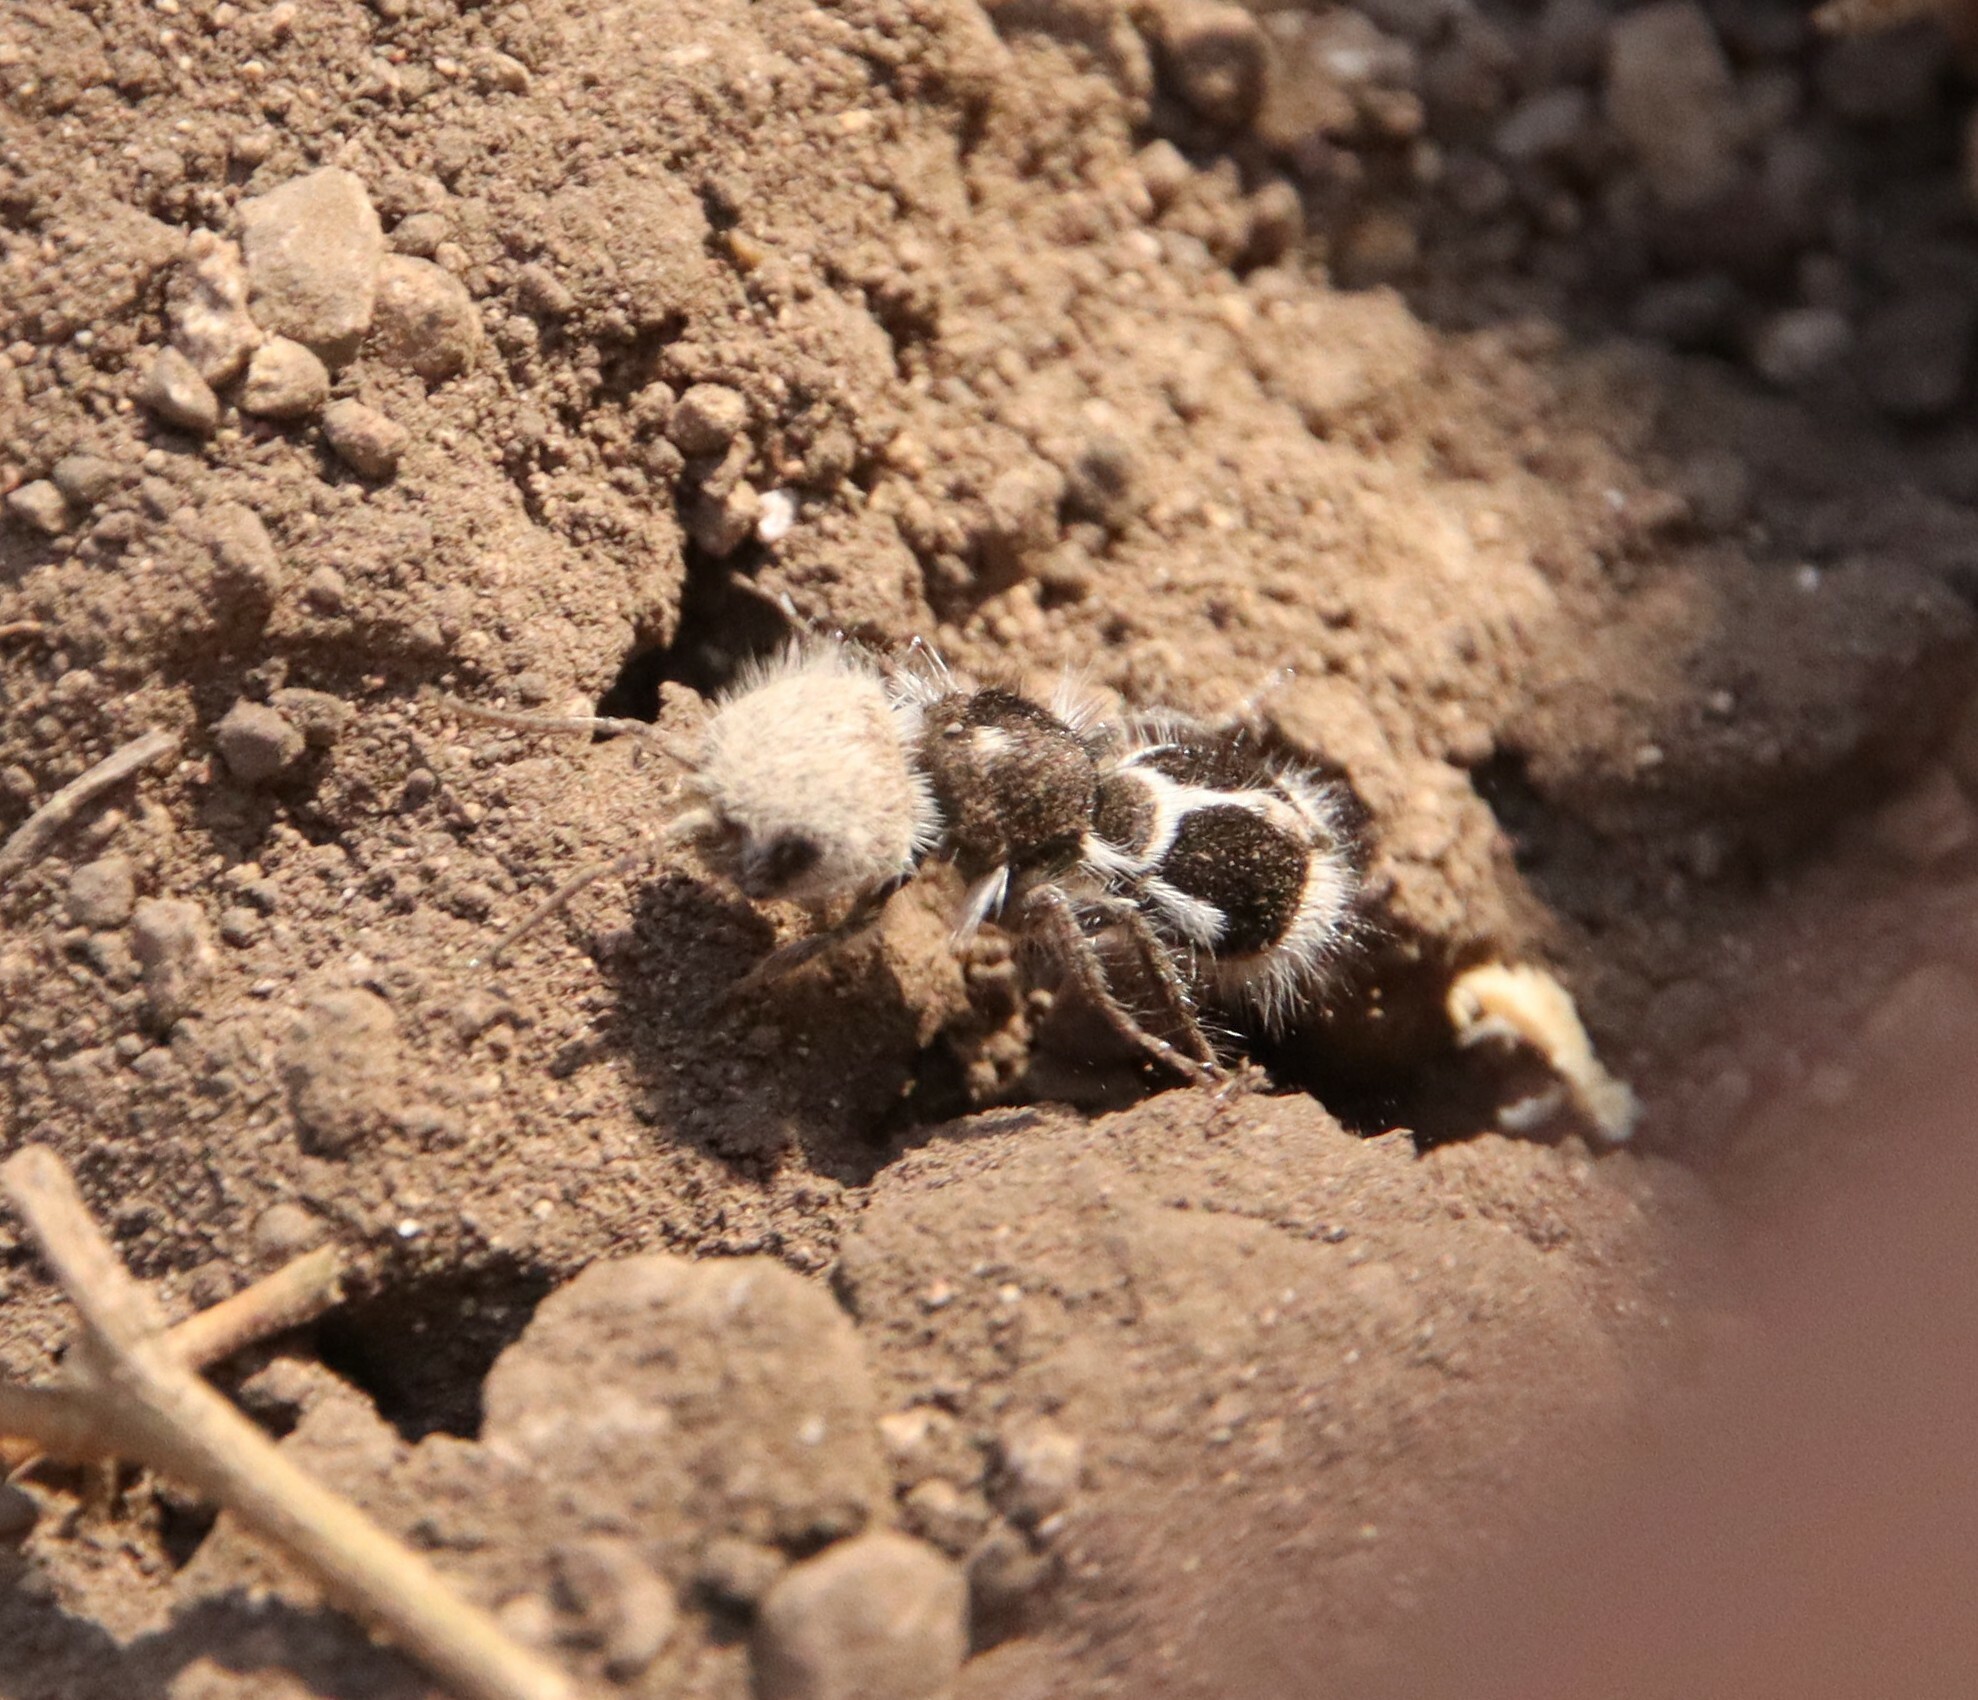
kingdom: Animalia
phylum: Arthropoda
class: Insecta
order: Hymenoptera
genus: Euspinolia
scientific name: Euspinolia
